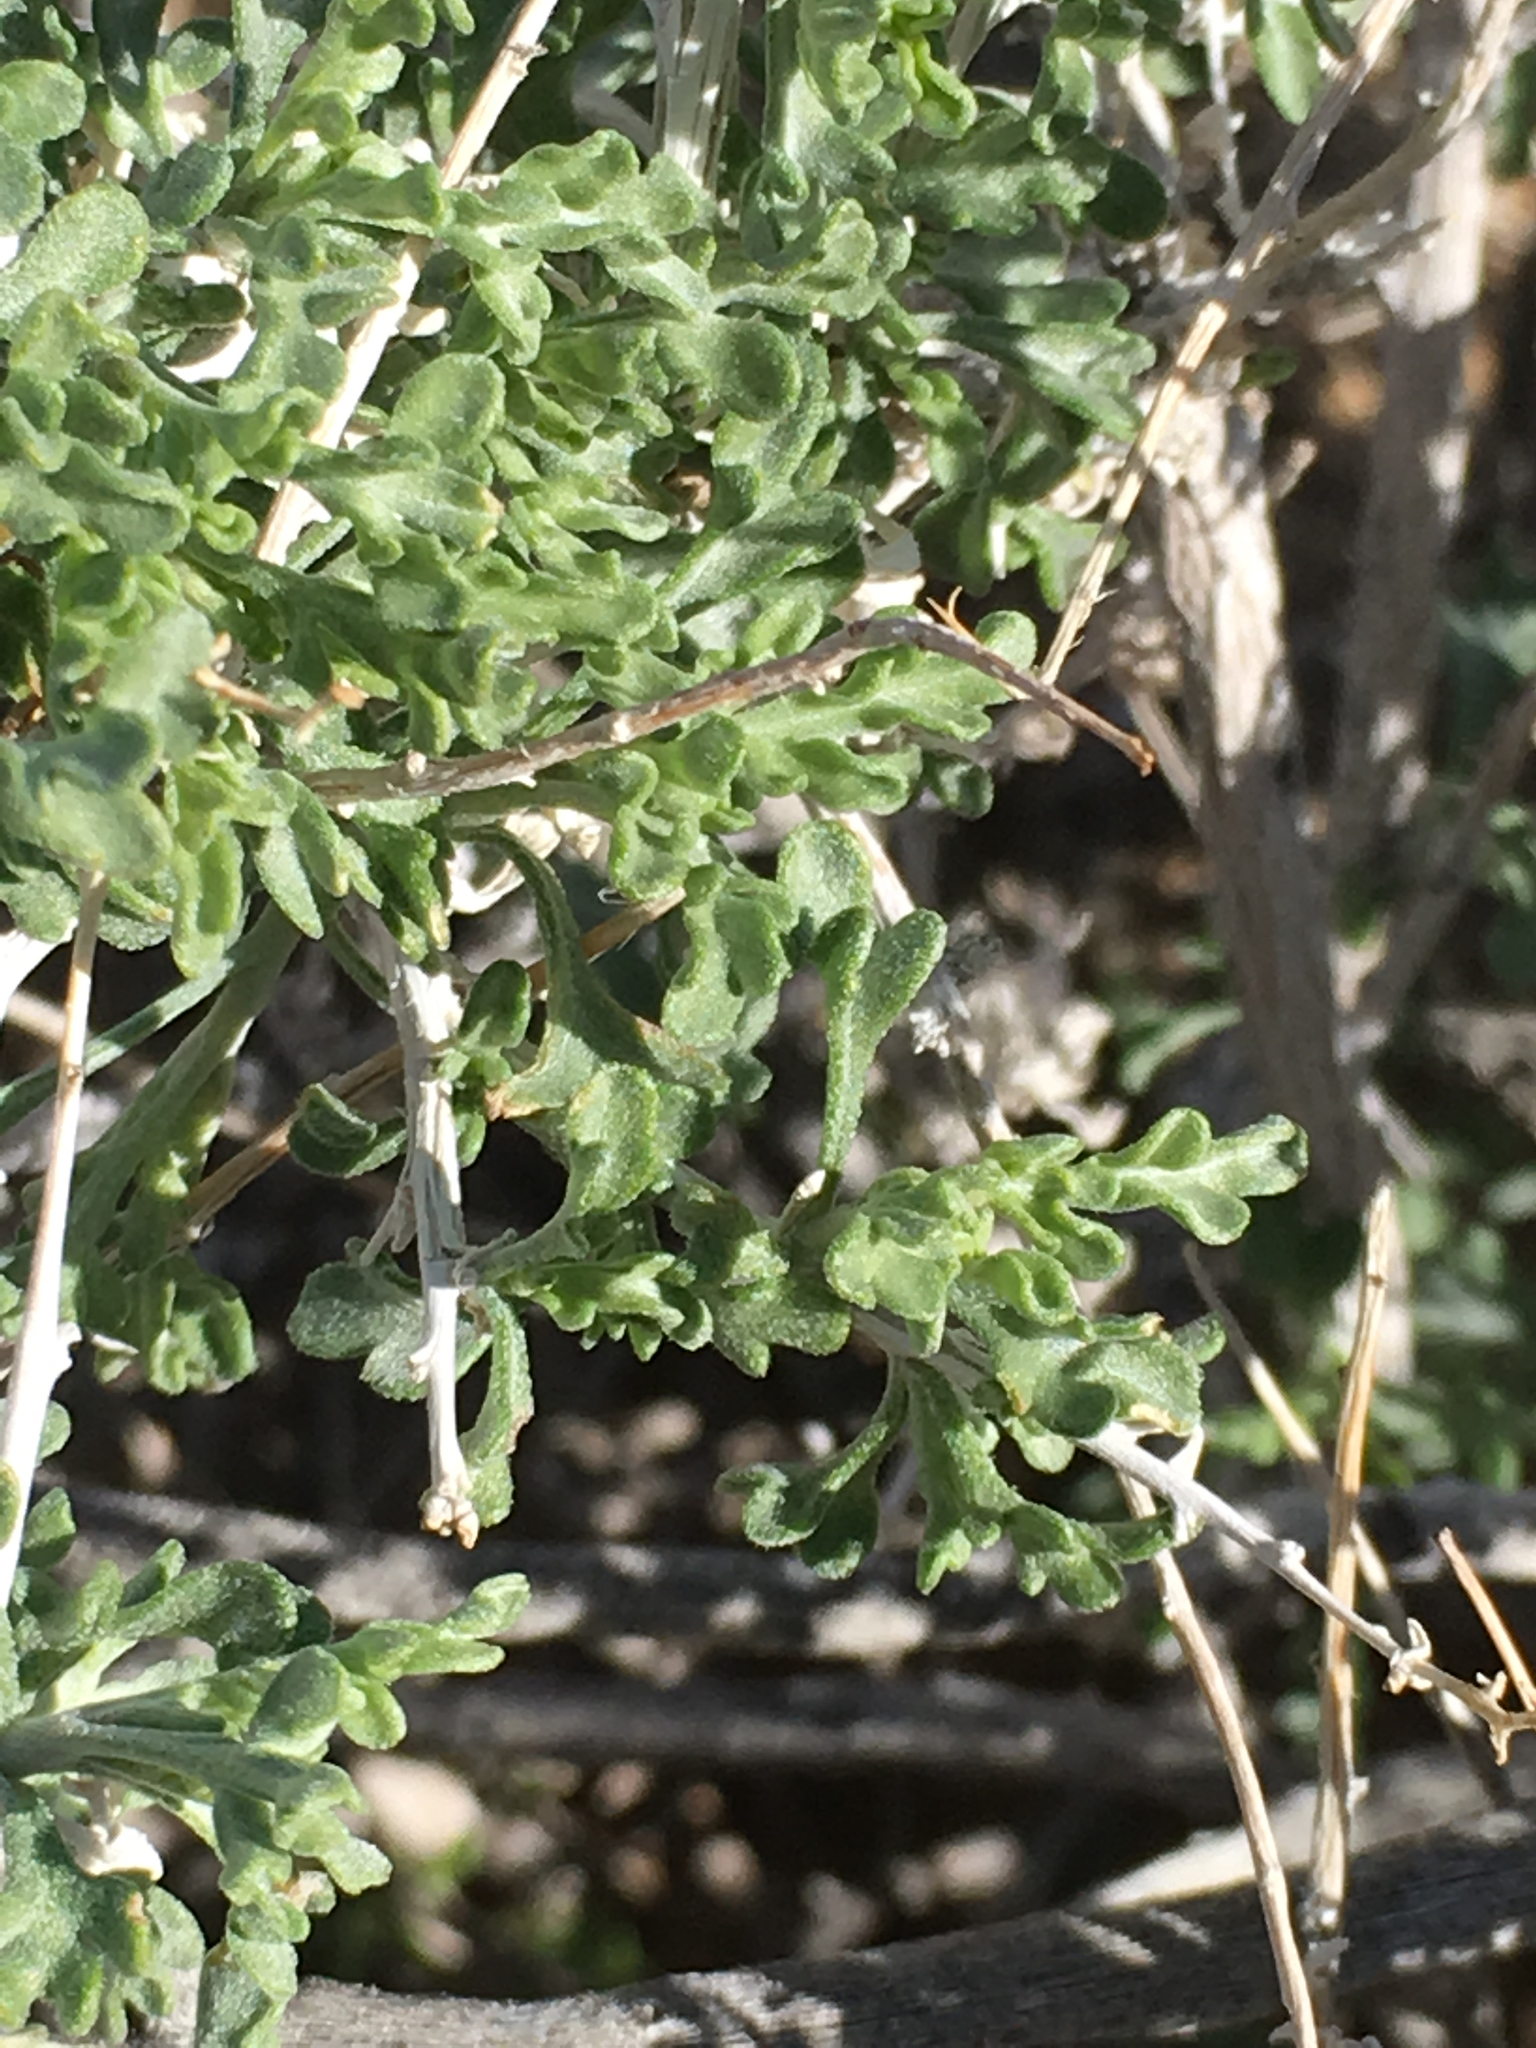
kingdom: Plantae
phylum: Tracheophyta
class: Magnoliopsida
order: Asterales
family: Asteraceae
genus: Ambrosia
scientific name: Ambrosia dumosa
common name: Bur-sage
